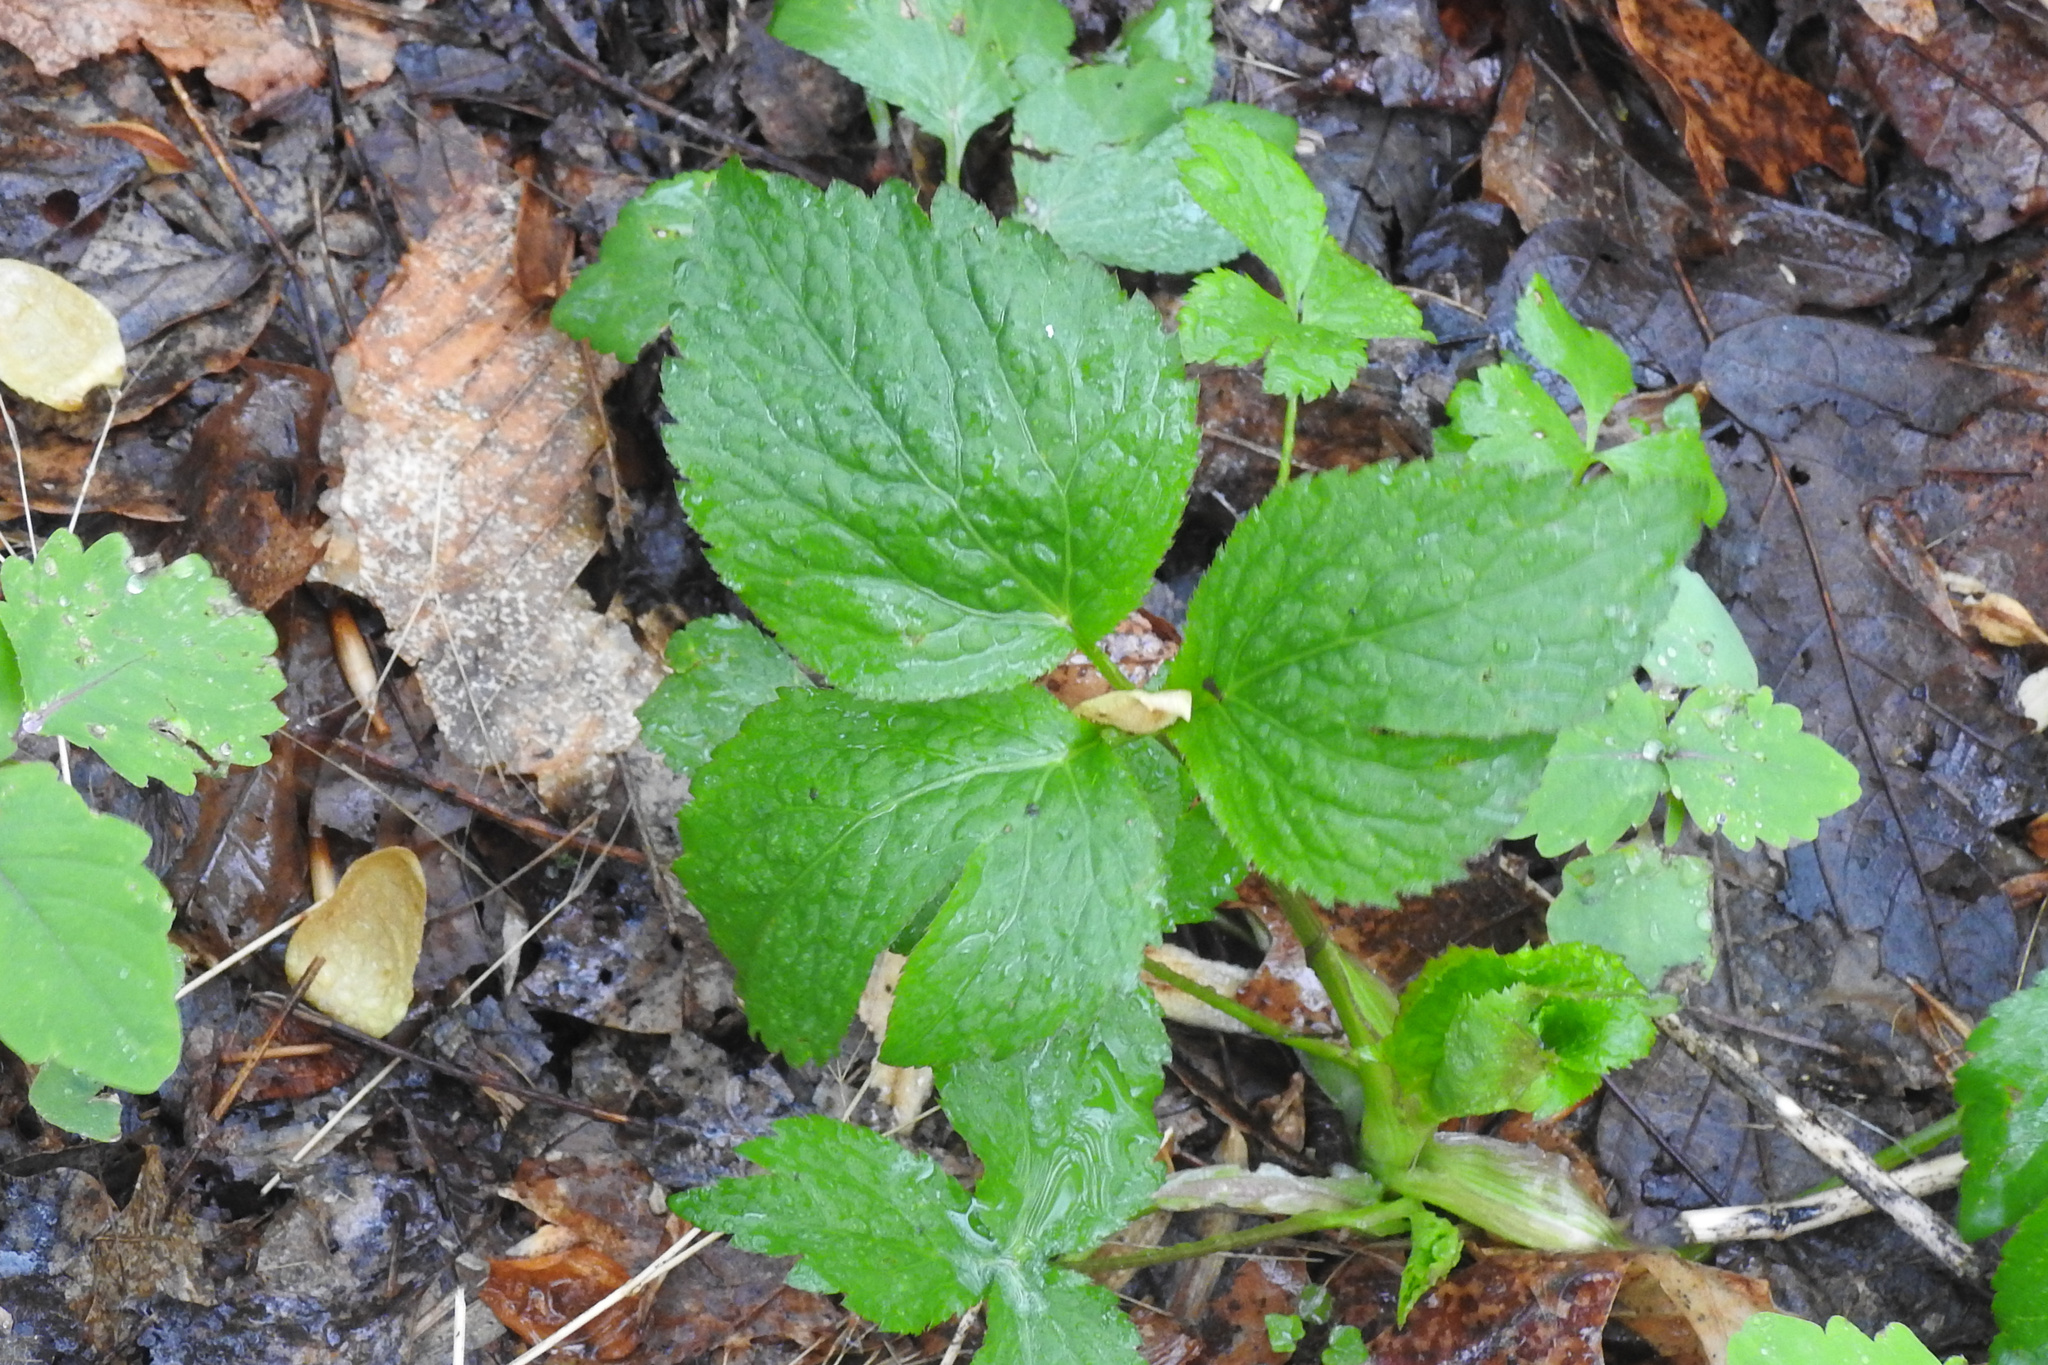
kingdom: Plantae
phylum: Tracheophyta
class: Magnoliopsida
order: Apiales
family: Apiaceae
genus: Cryptotaenia
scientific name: Cryptotaenia canadensis
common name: Honewort
